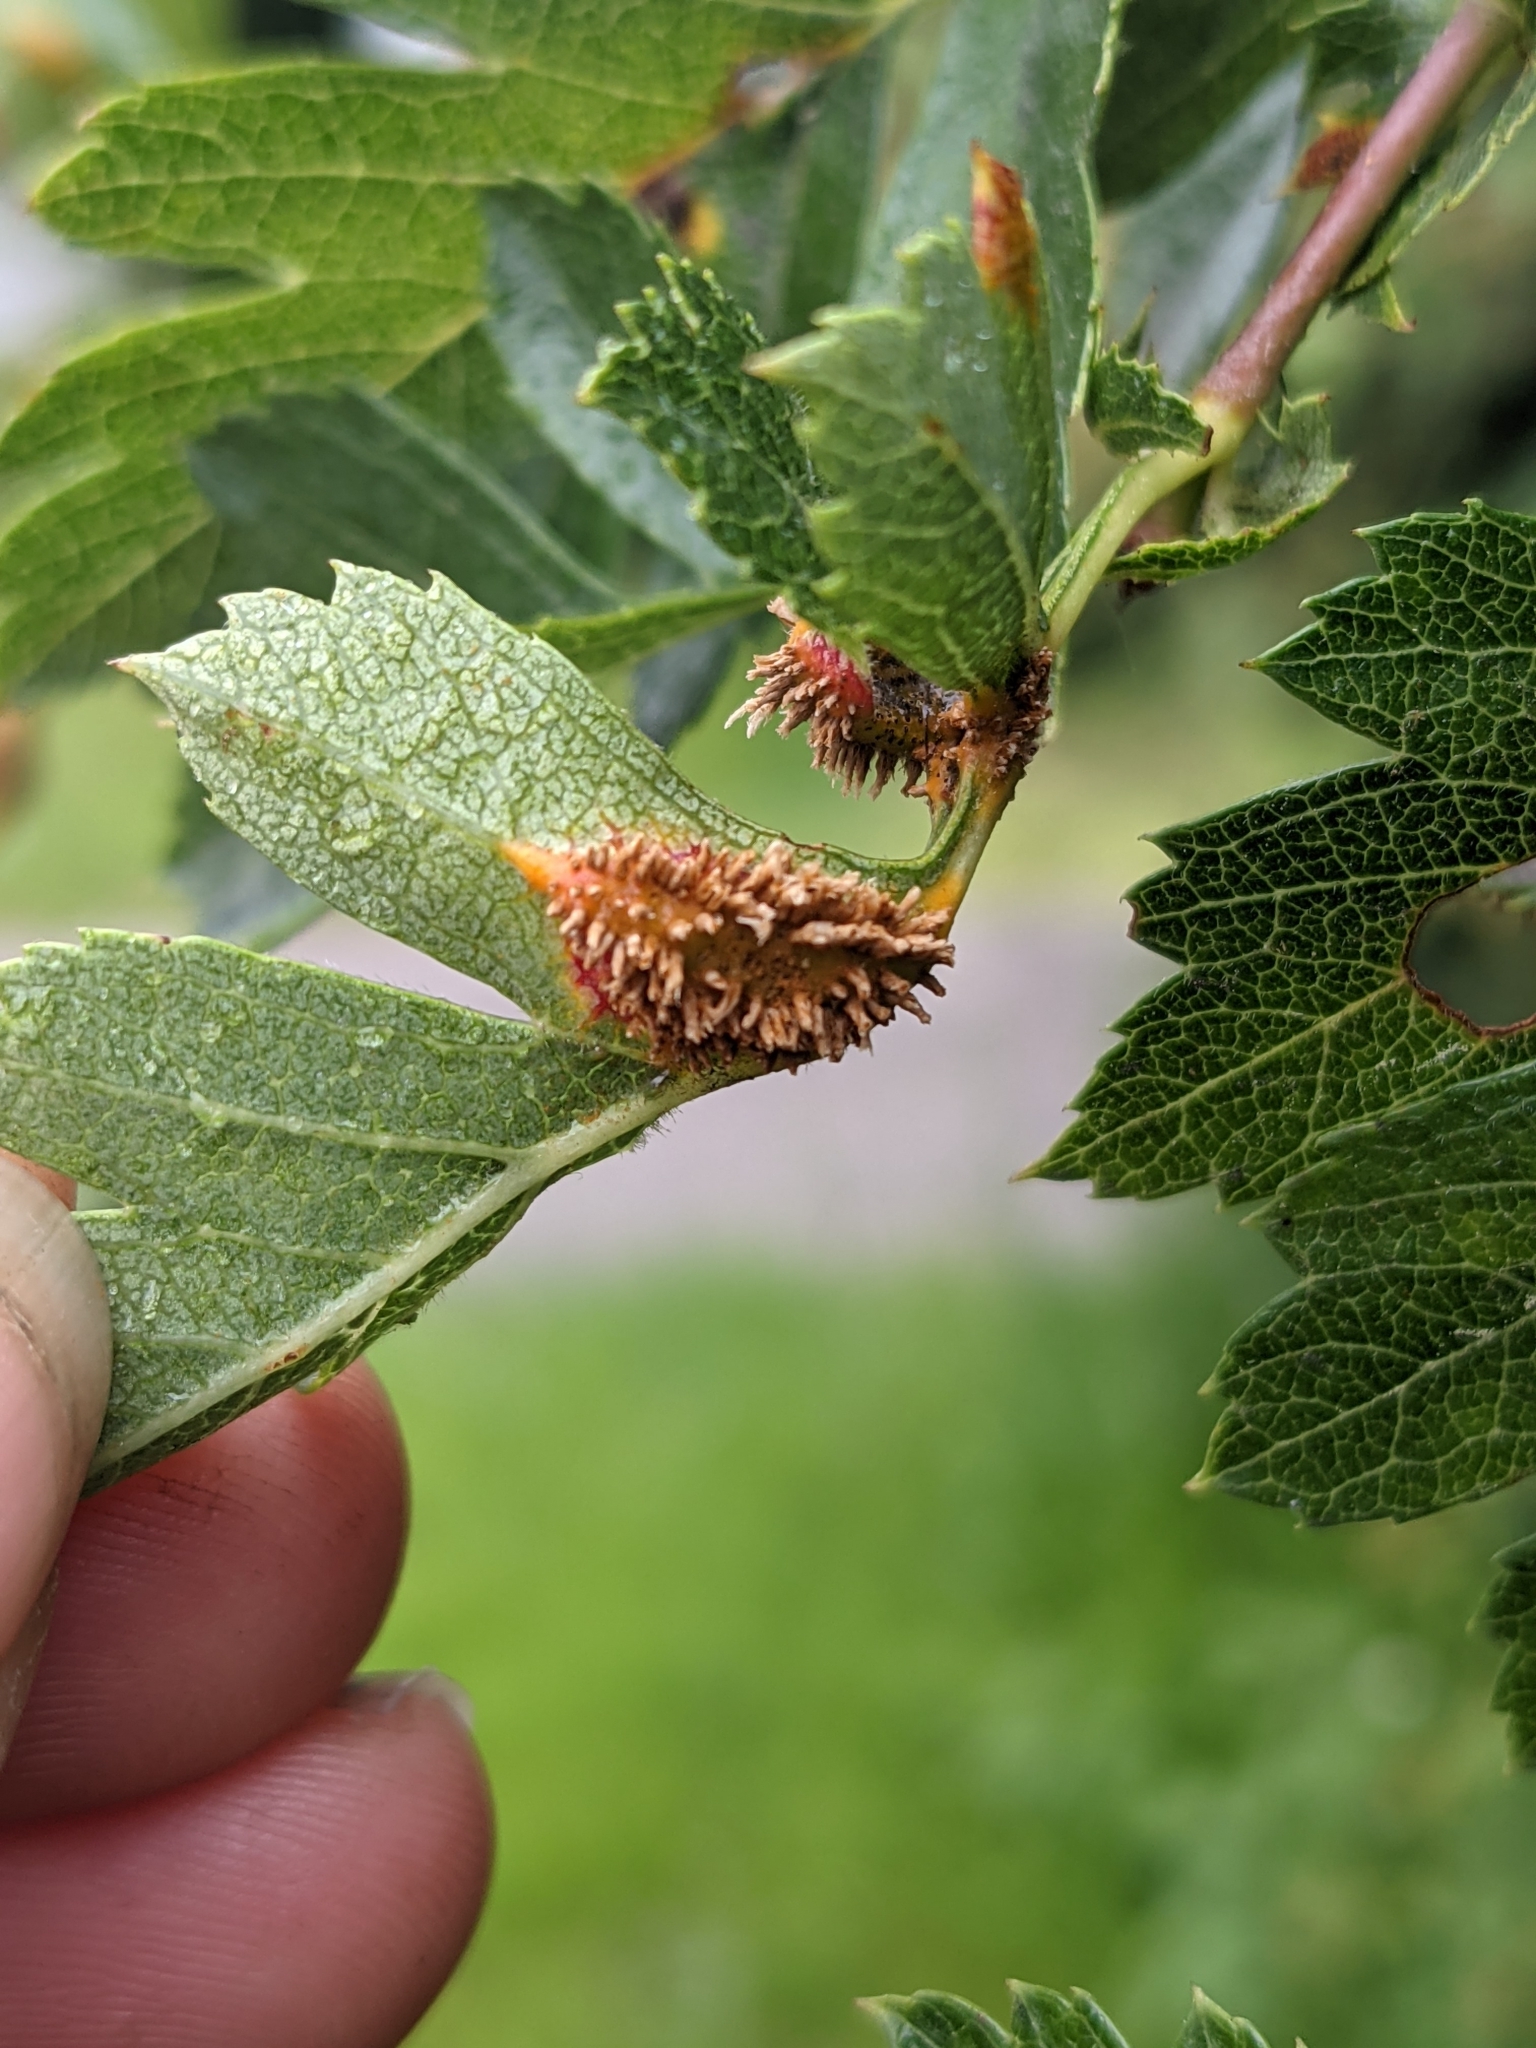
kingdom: Fungi
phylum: Basidiomycota
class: Pucciniomycetes
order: Pucciniales
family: Gymnosporangiaceae
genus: Gymnosporangium
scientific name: Gymnosporangium clavariiforme
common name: Tongues of fire
